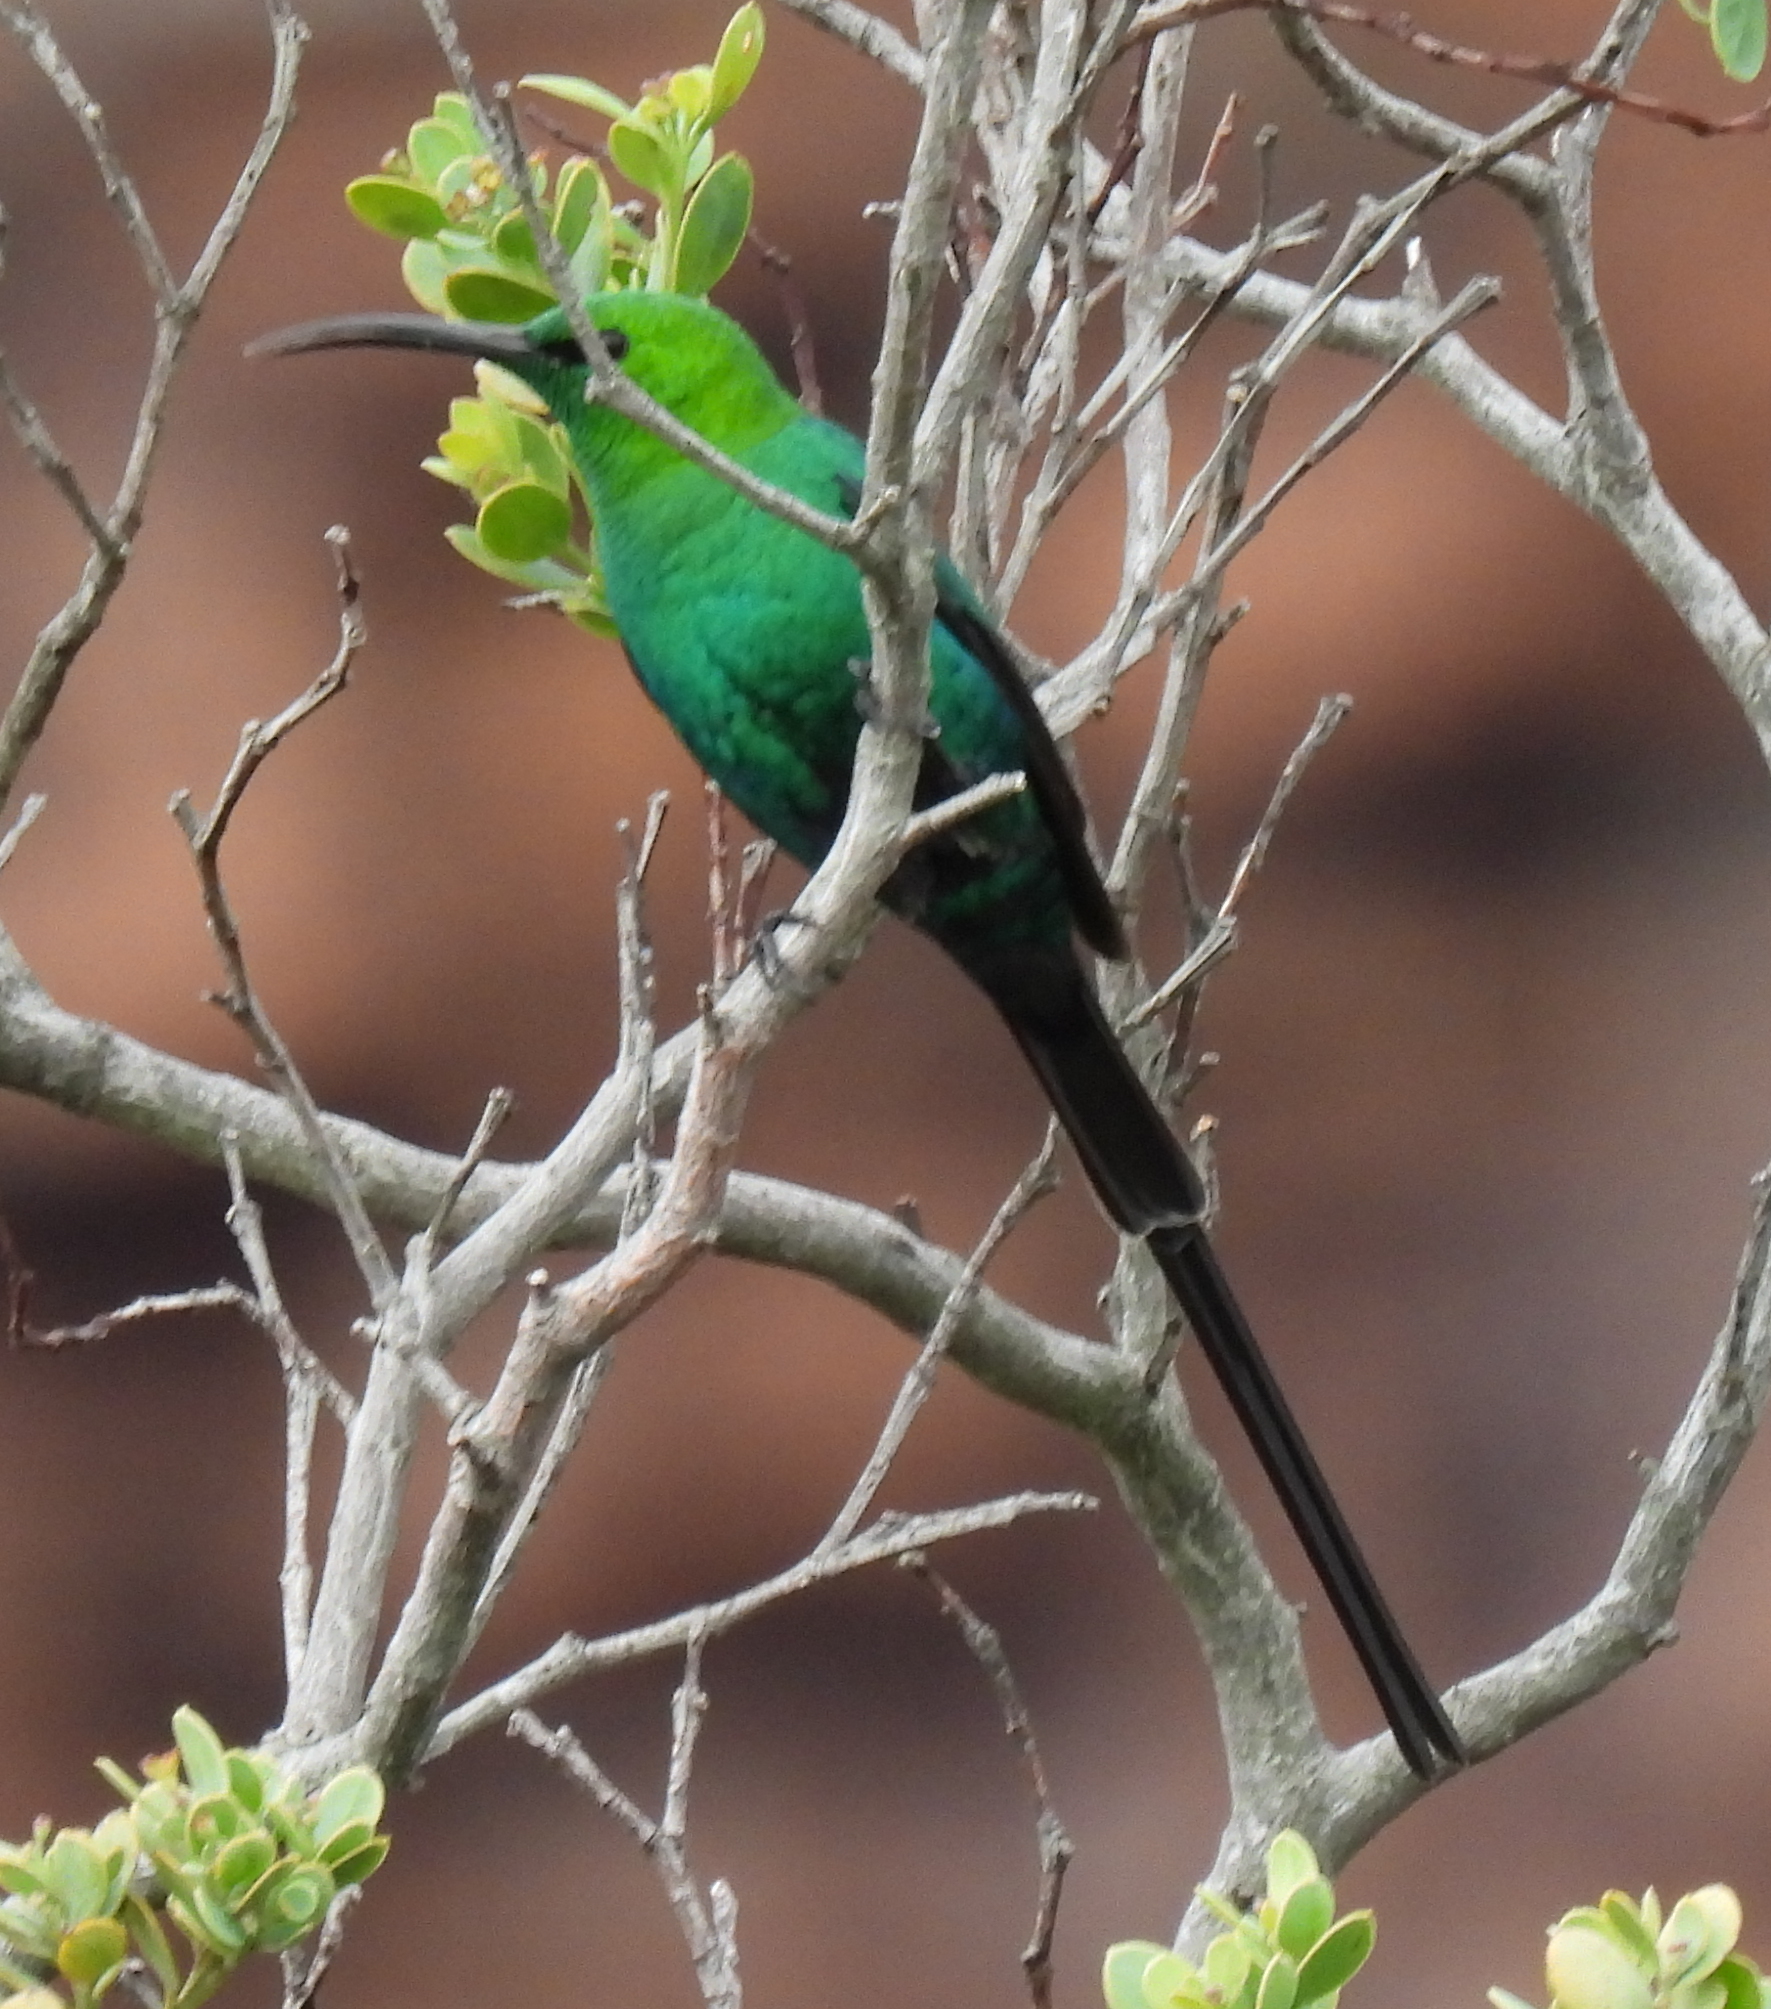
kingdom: Animalia
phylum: Chordata
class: Aves
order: Passeriformes
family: Nectariniidae
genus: Nectarinia
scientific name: Nectarinia famosa
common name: Malachite sunbird
